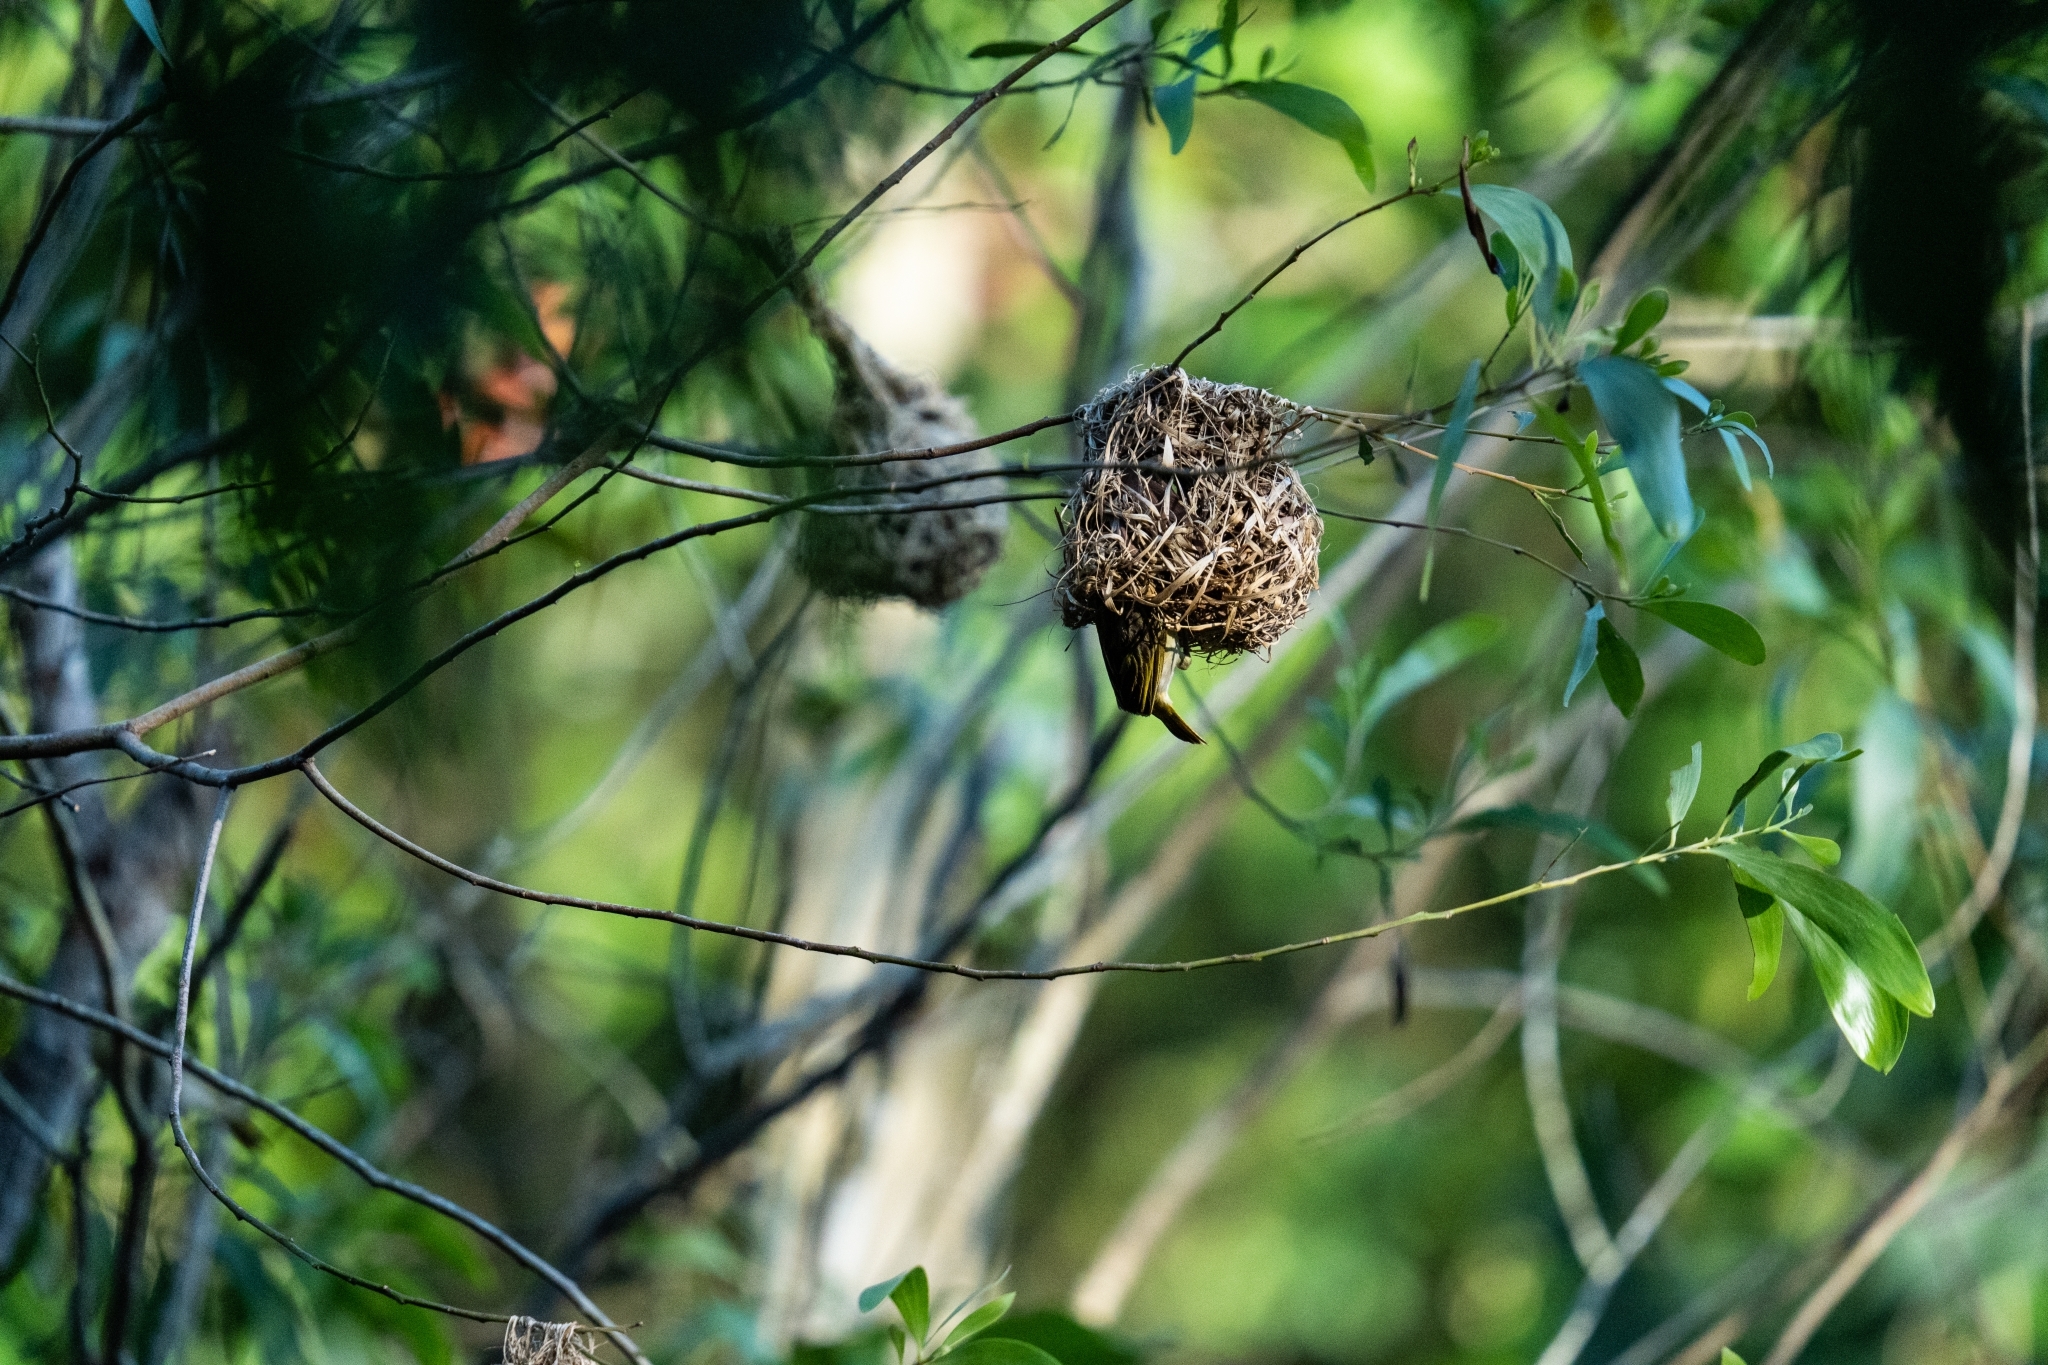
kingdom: Animalia
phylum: Chordata
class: Aves
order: Passeriformes
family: Ploceidae
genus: Ploceus
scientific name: Ploceus jacksoni
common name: Golden-backed weaver
